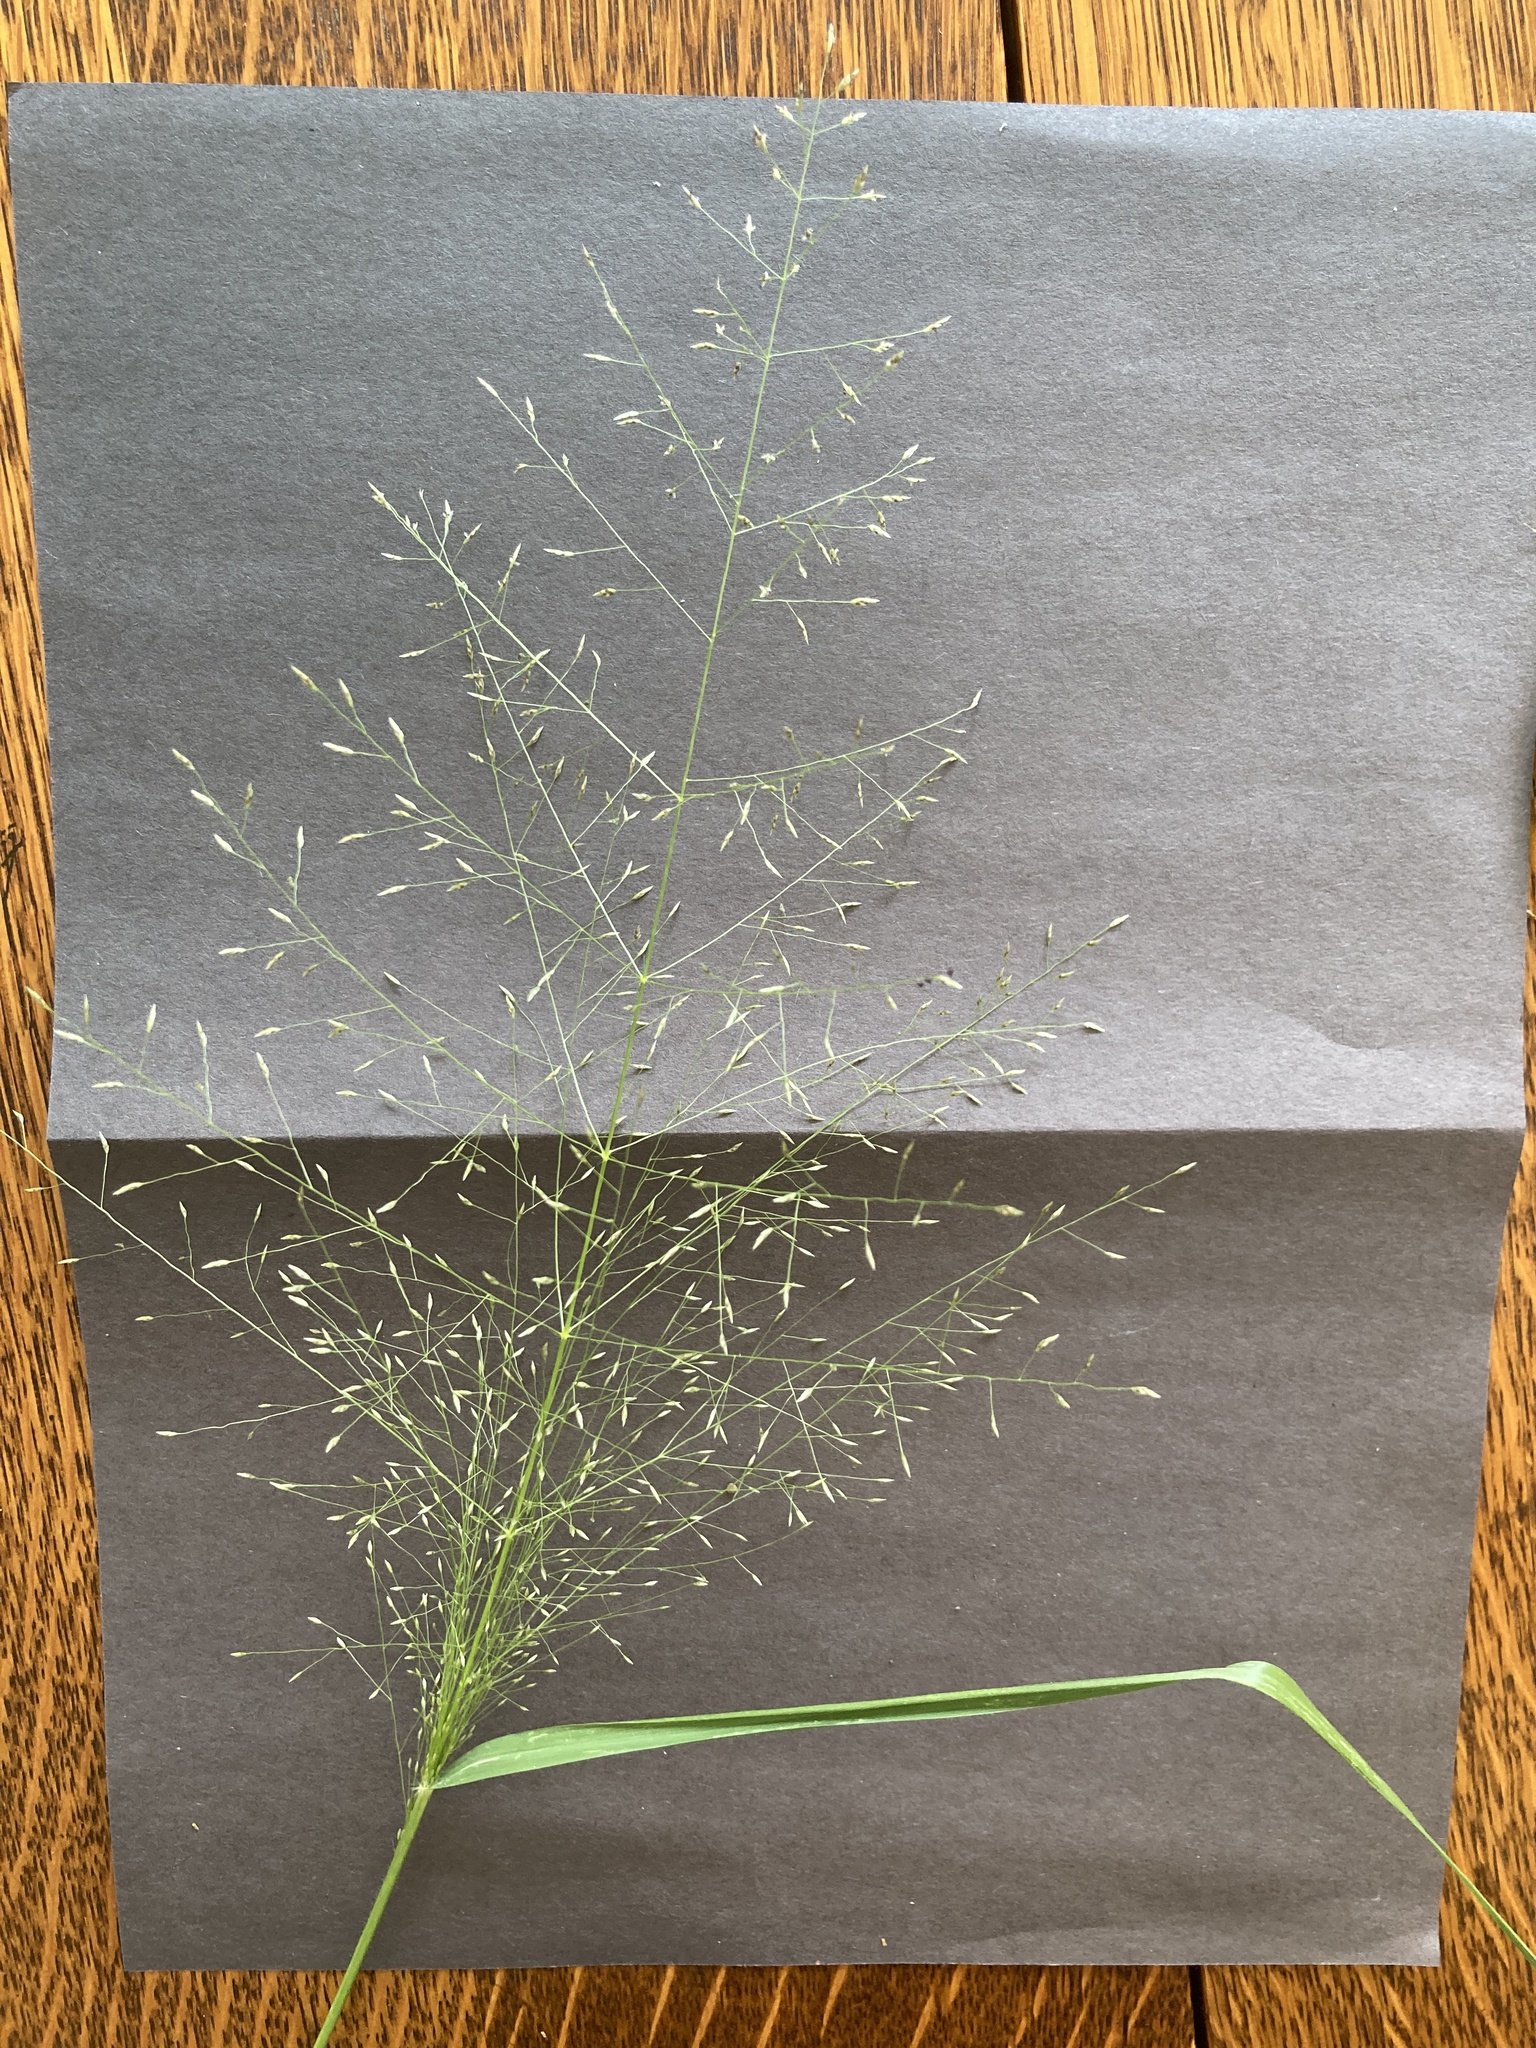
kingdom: Plantae
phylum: Tracheophyta
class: Liliopsida
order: Poales
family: Poaceae
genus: Eragrostis
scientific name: Eragrostis intermedia
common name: Plains love grass
